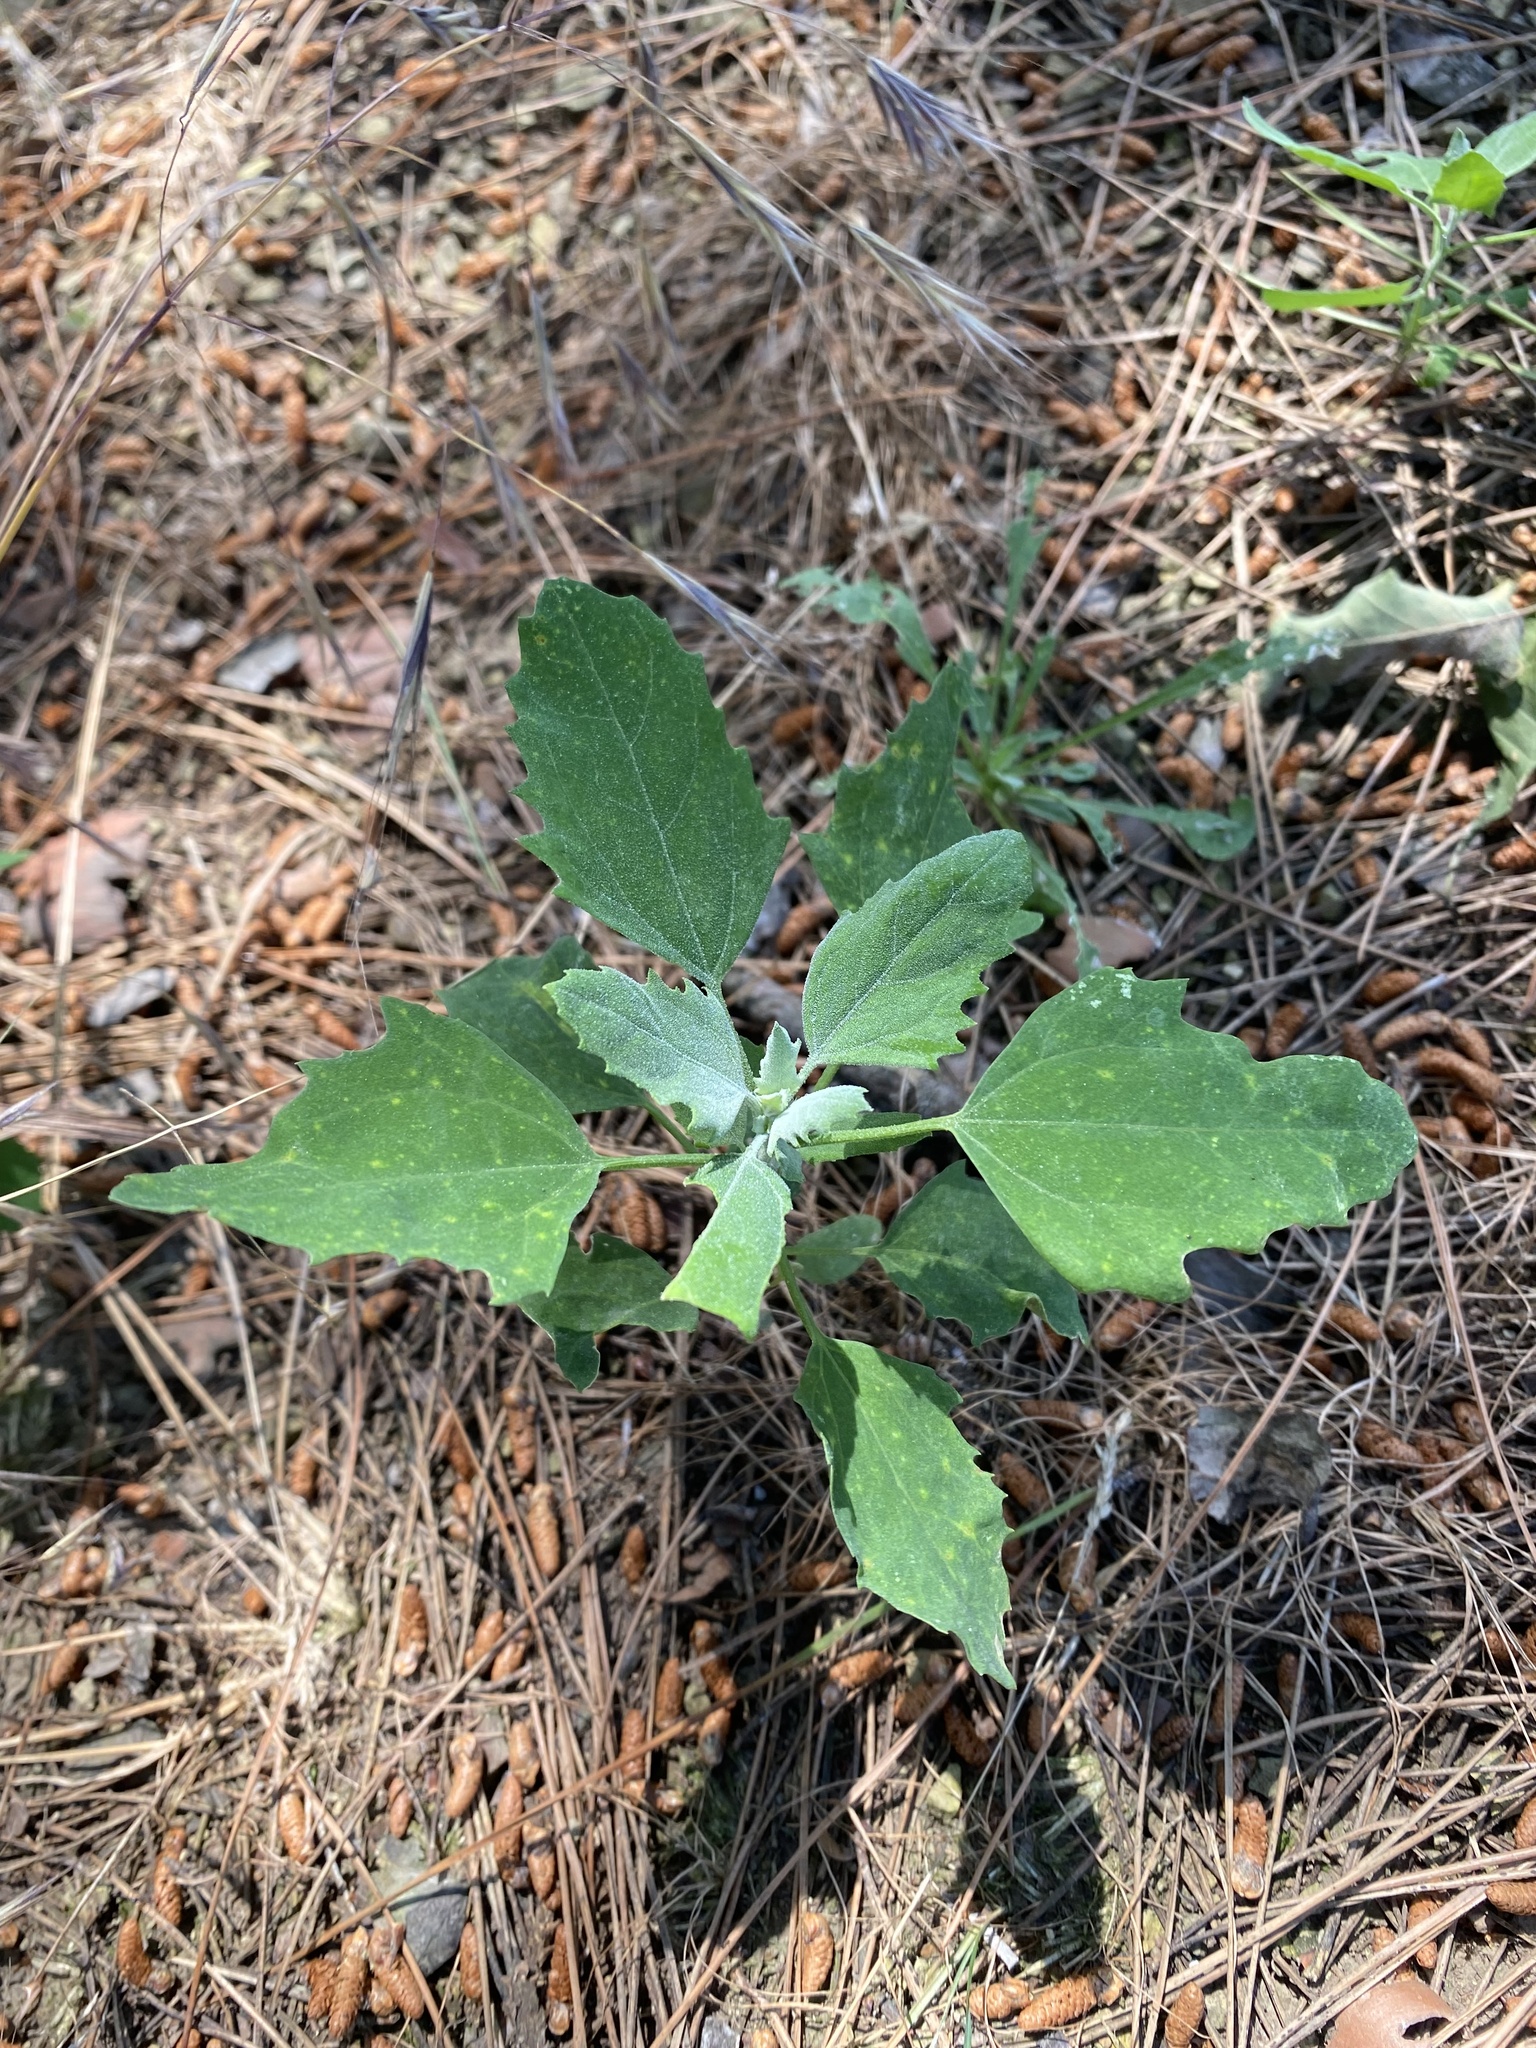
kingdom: Plantae
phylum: Tracheophyta
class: Magnoliopsida
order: Caryophyllales
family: Amaranthaceae
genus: Chenopodium
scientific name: Chenopodium album
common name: Fat-hen
